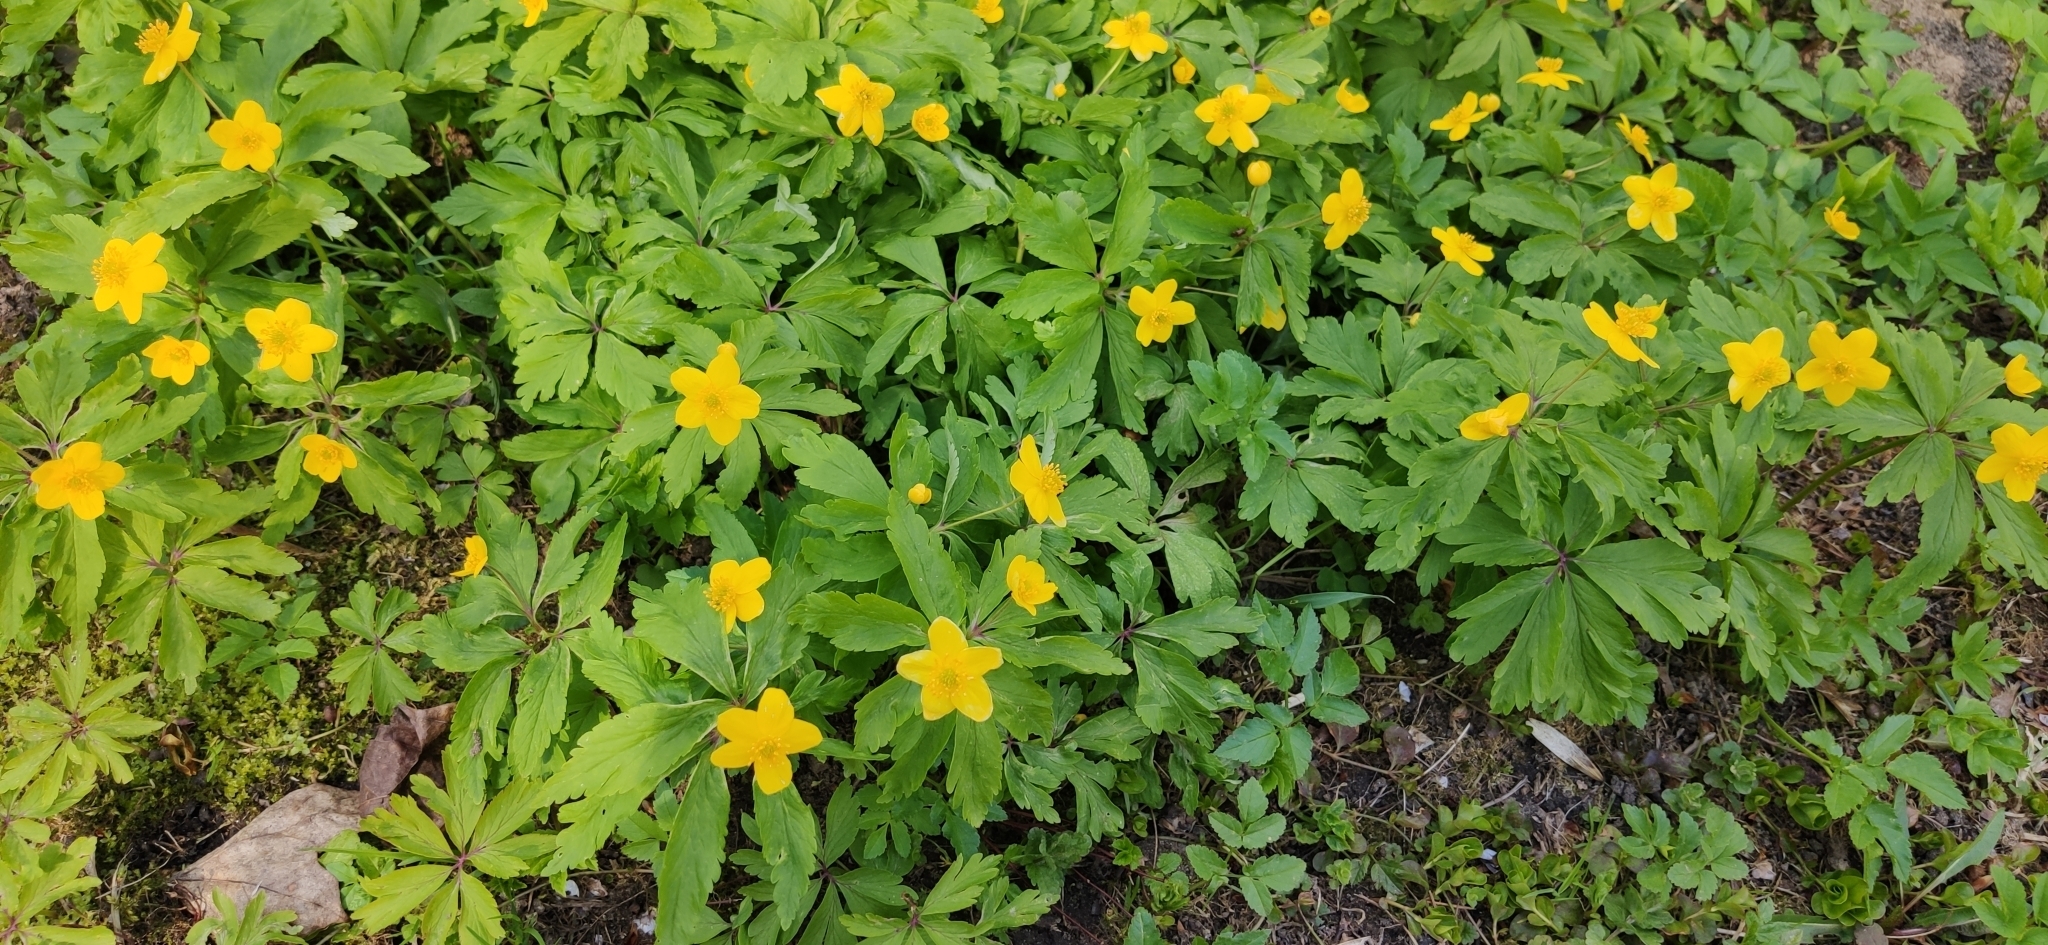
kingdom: Plantae
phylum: Tracheophyta
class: Magnoliopsida
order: Ranunculales
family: Ranunculaceae
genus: Anemone
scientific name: Anemone ranunculoides
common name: Yellow anemone
